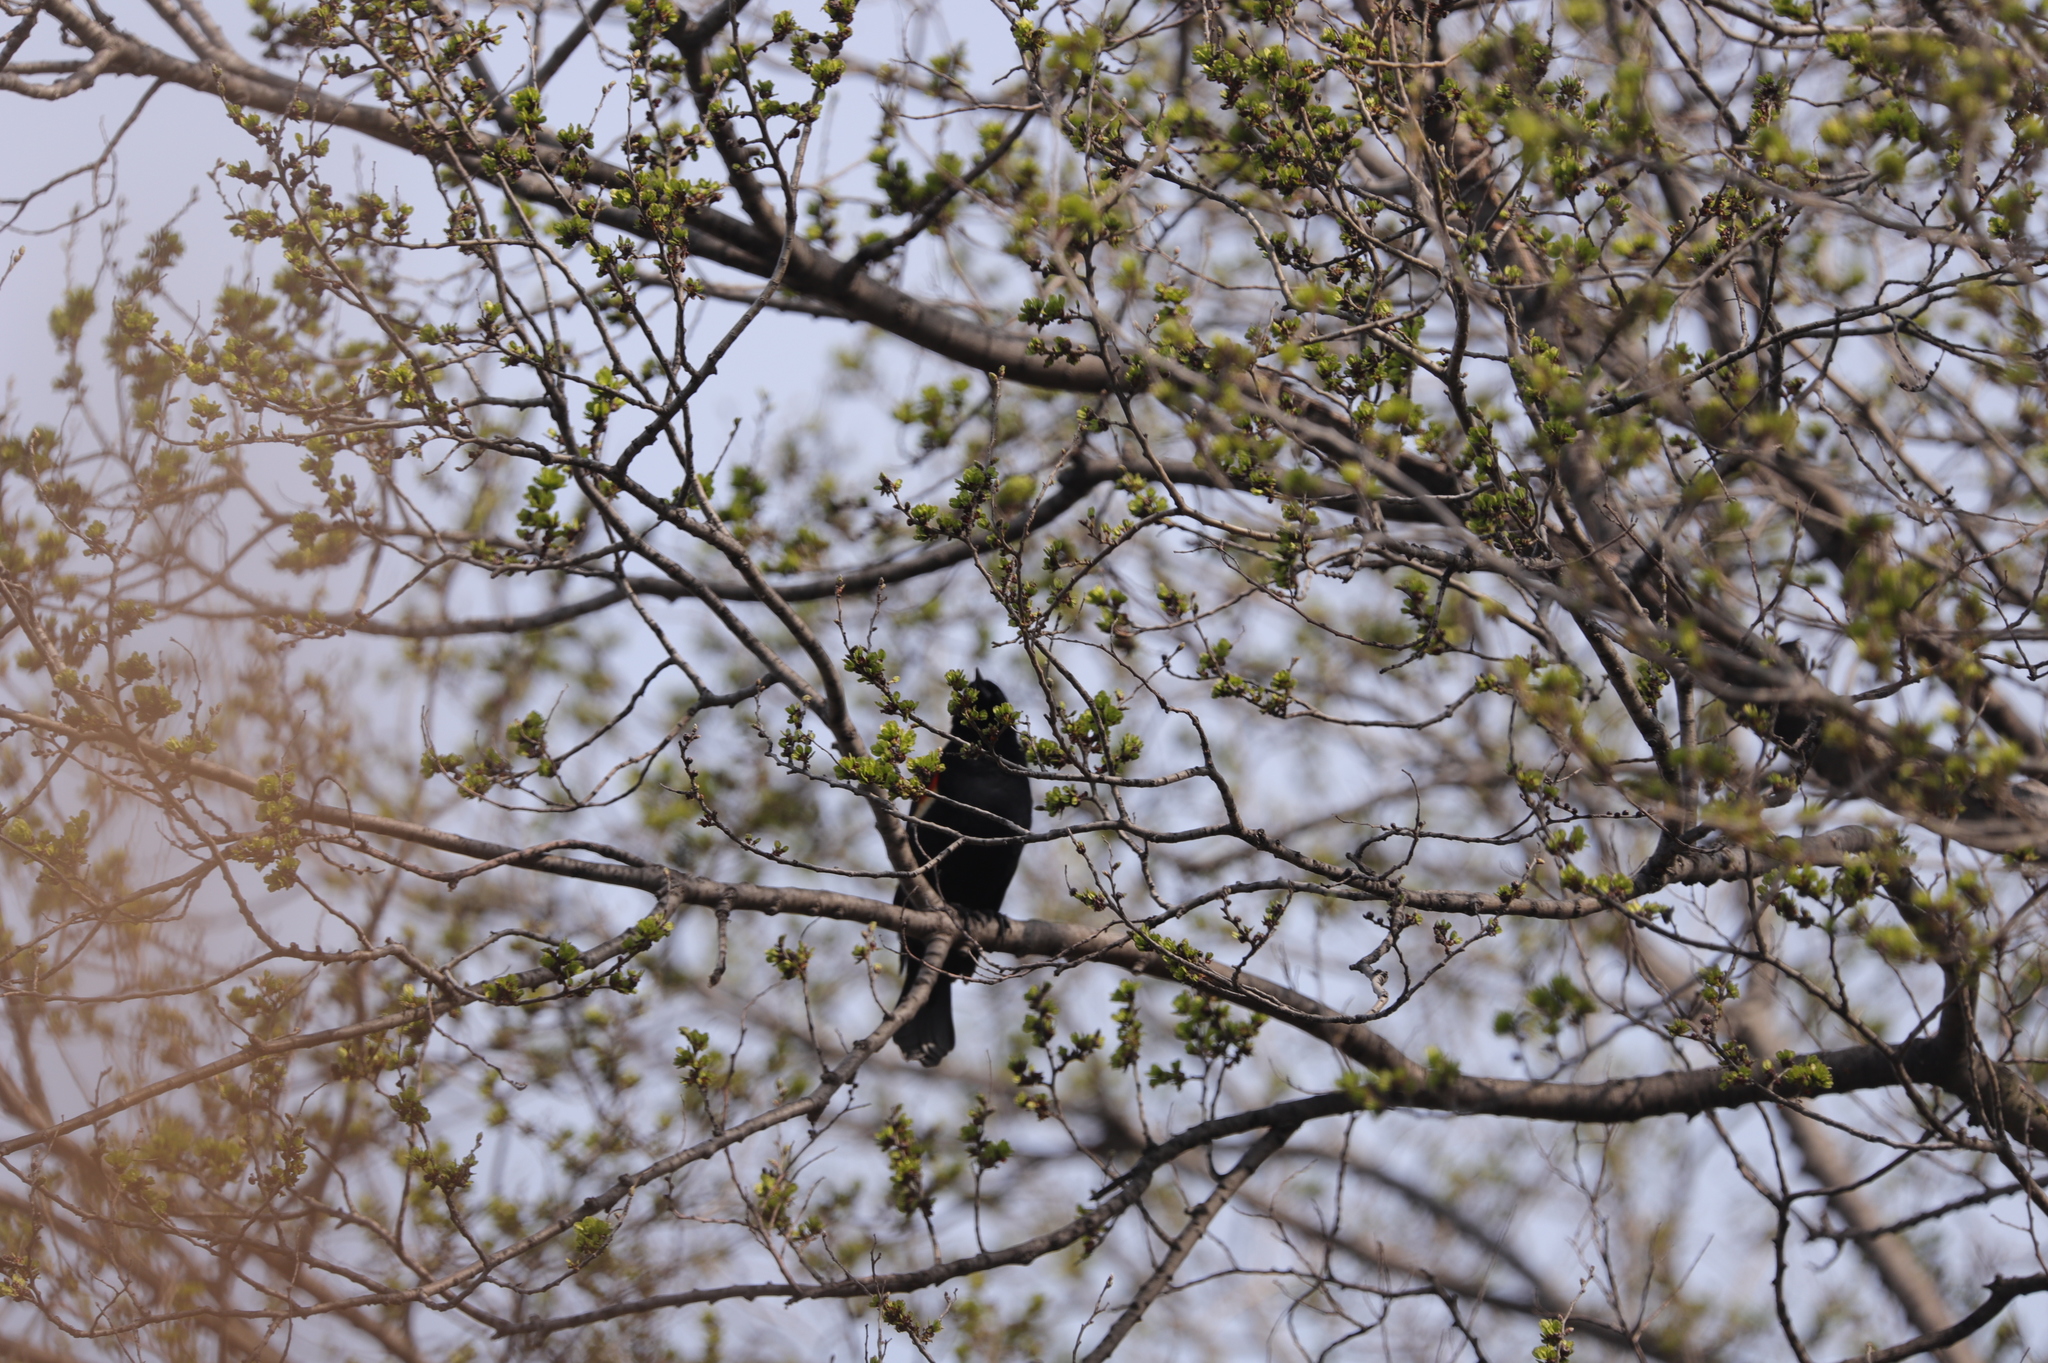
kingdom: Animalia
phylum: Chordata
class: Aves
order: Passeriformes
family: Icteridae
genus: Agelaius
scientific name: Agelaius phoeniceus
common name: Red-winged blackbird
